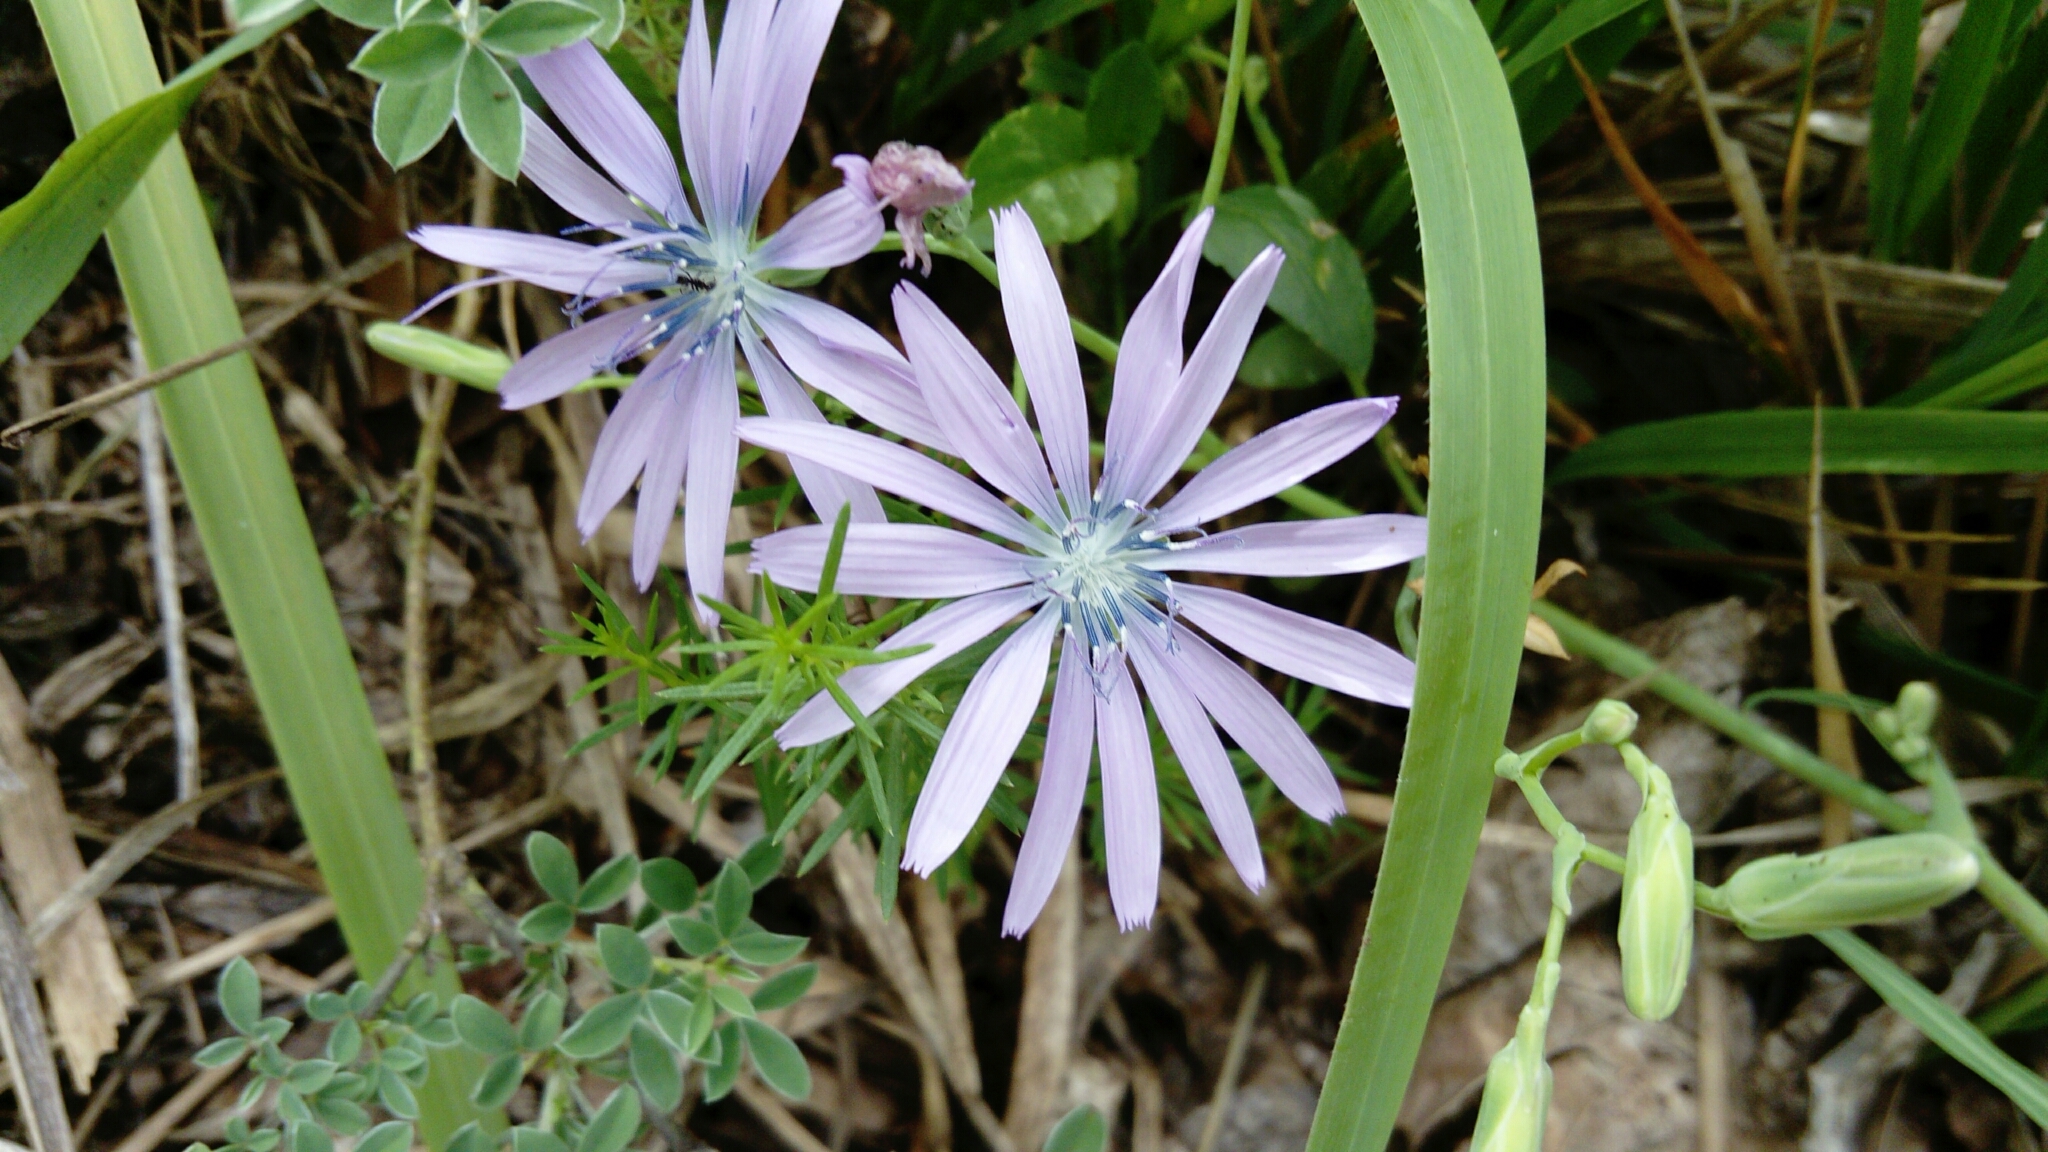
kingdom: Plantae
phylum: Tracheophyta
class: Magnoliopsida
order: Asterales
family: Asteraceae
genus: Lactuca
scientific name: Lactuca perennis
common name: Mountain lettuce
